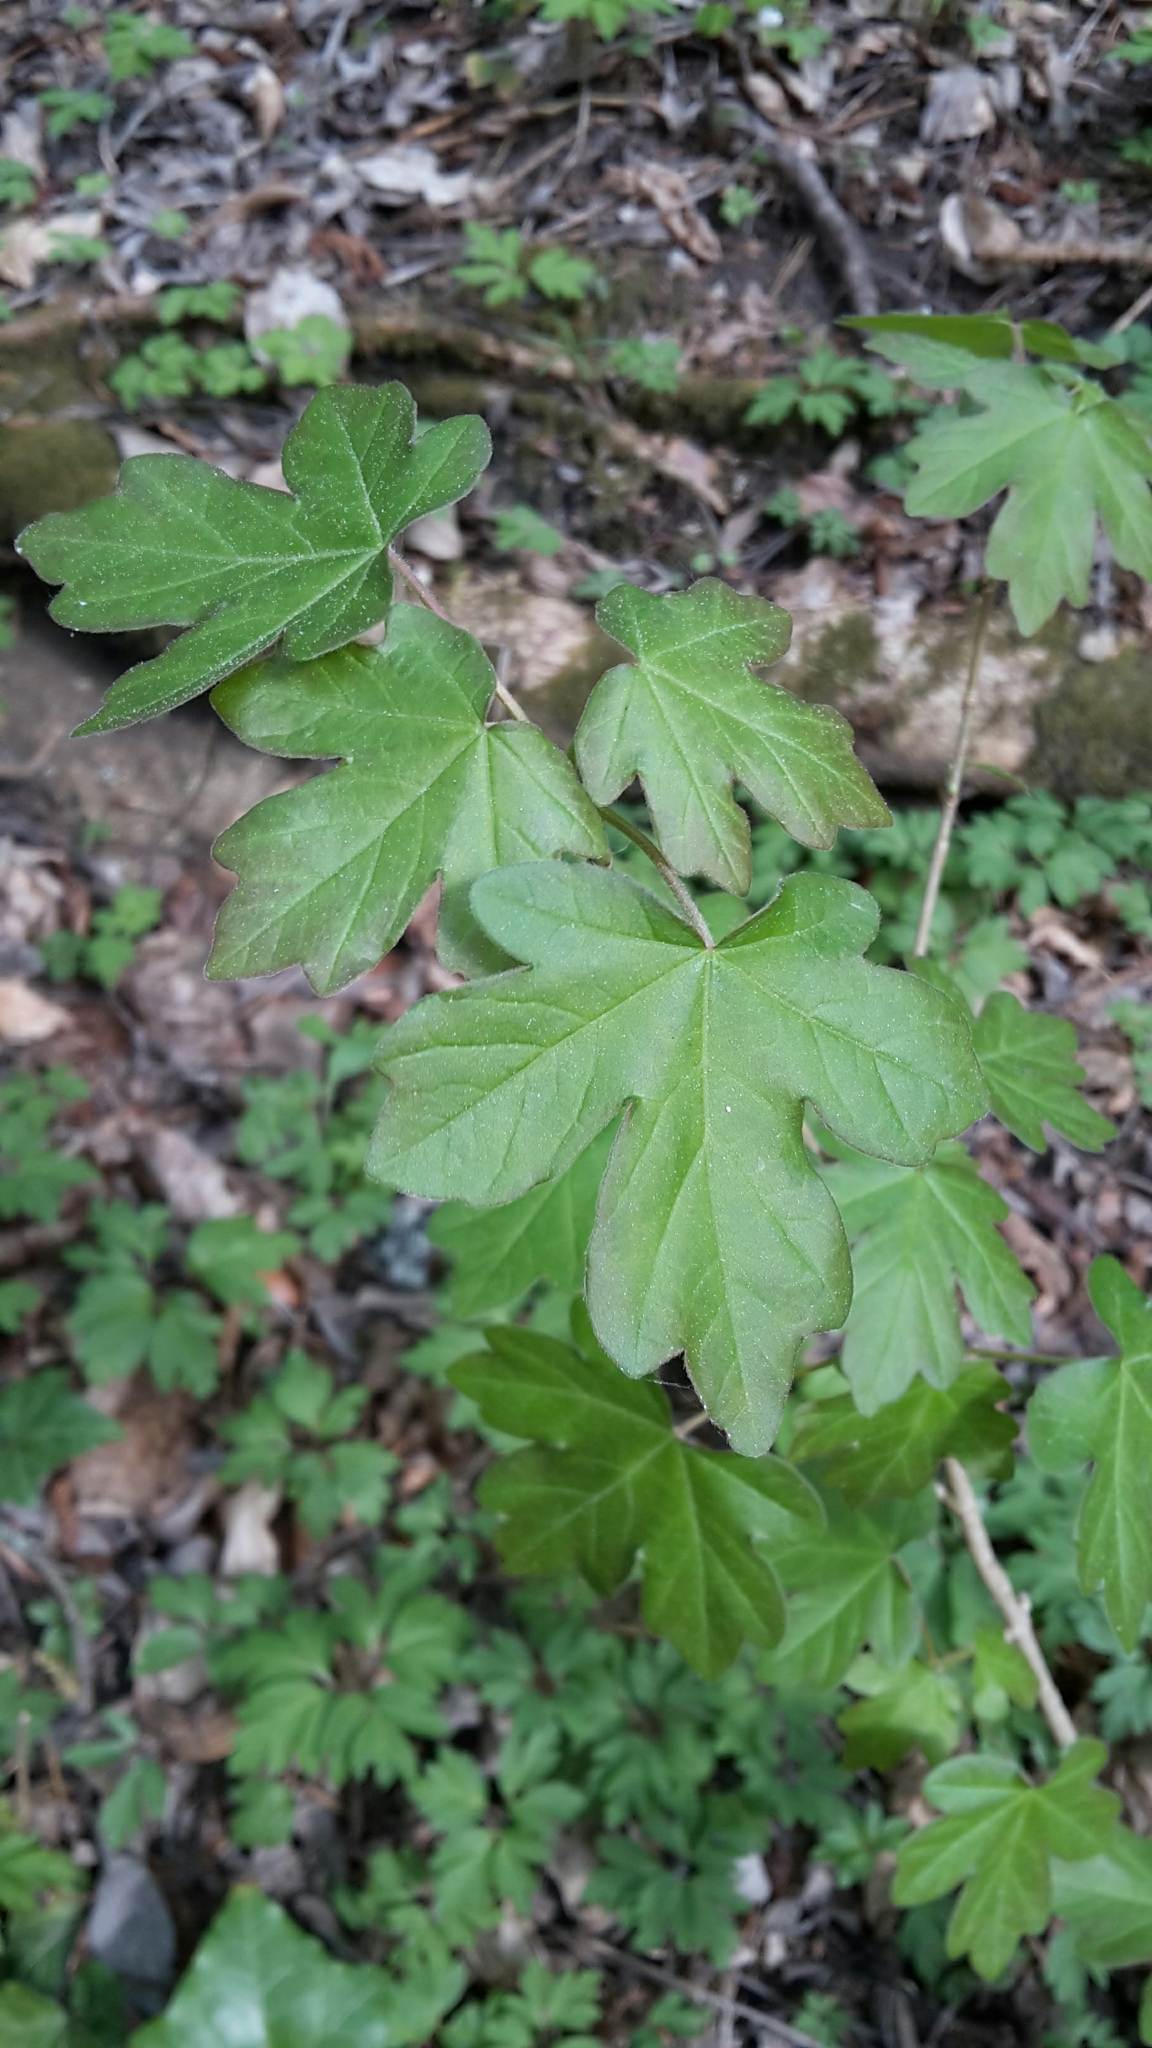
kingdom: Plantae
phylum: Tracheophyta
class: Magnoliopsida
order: Sapindales
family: Sapindaceae
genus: Acer
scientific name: Acer campestre
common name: Field maple
